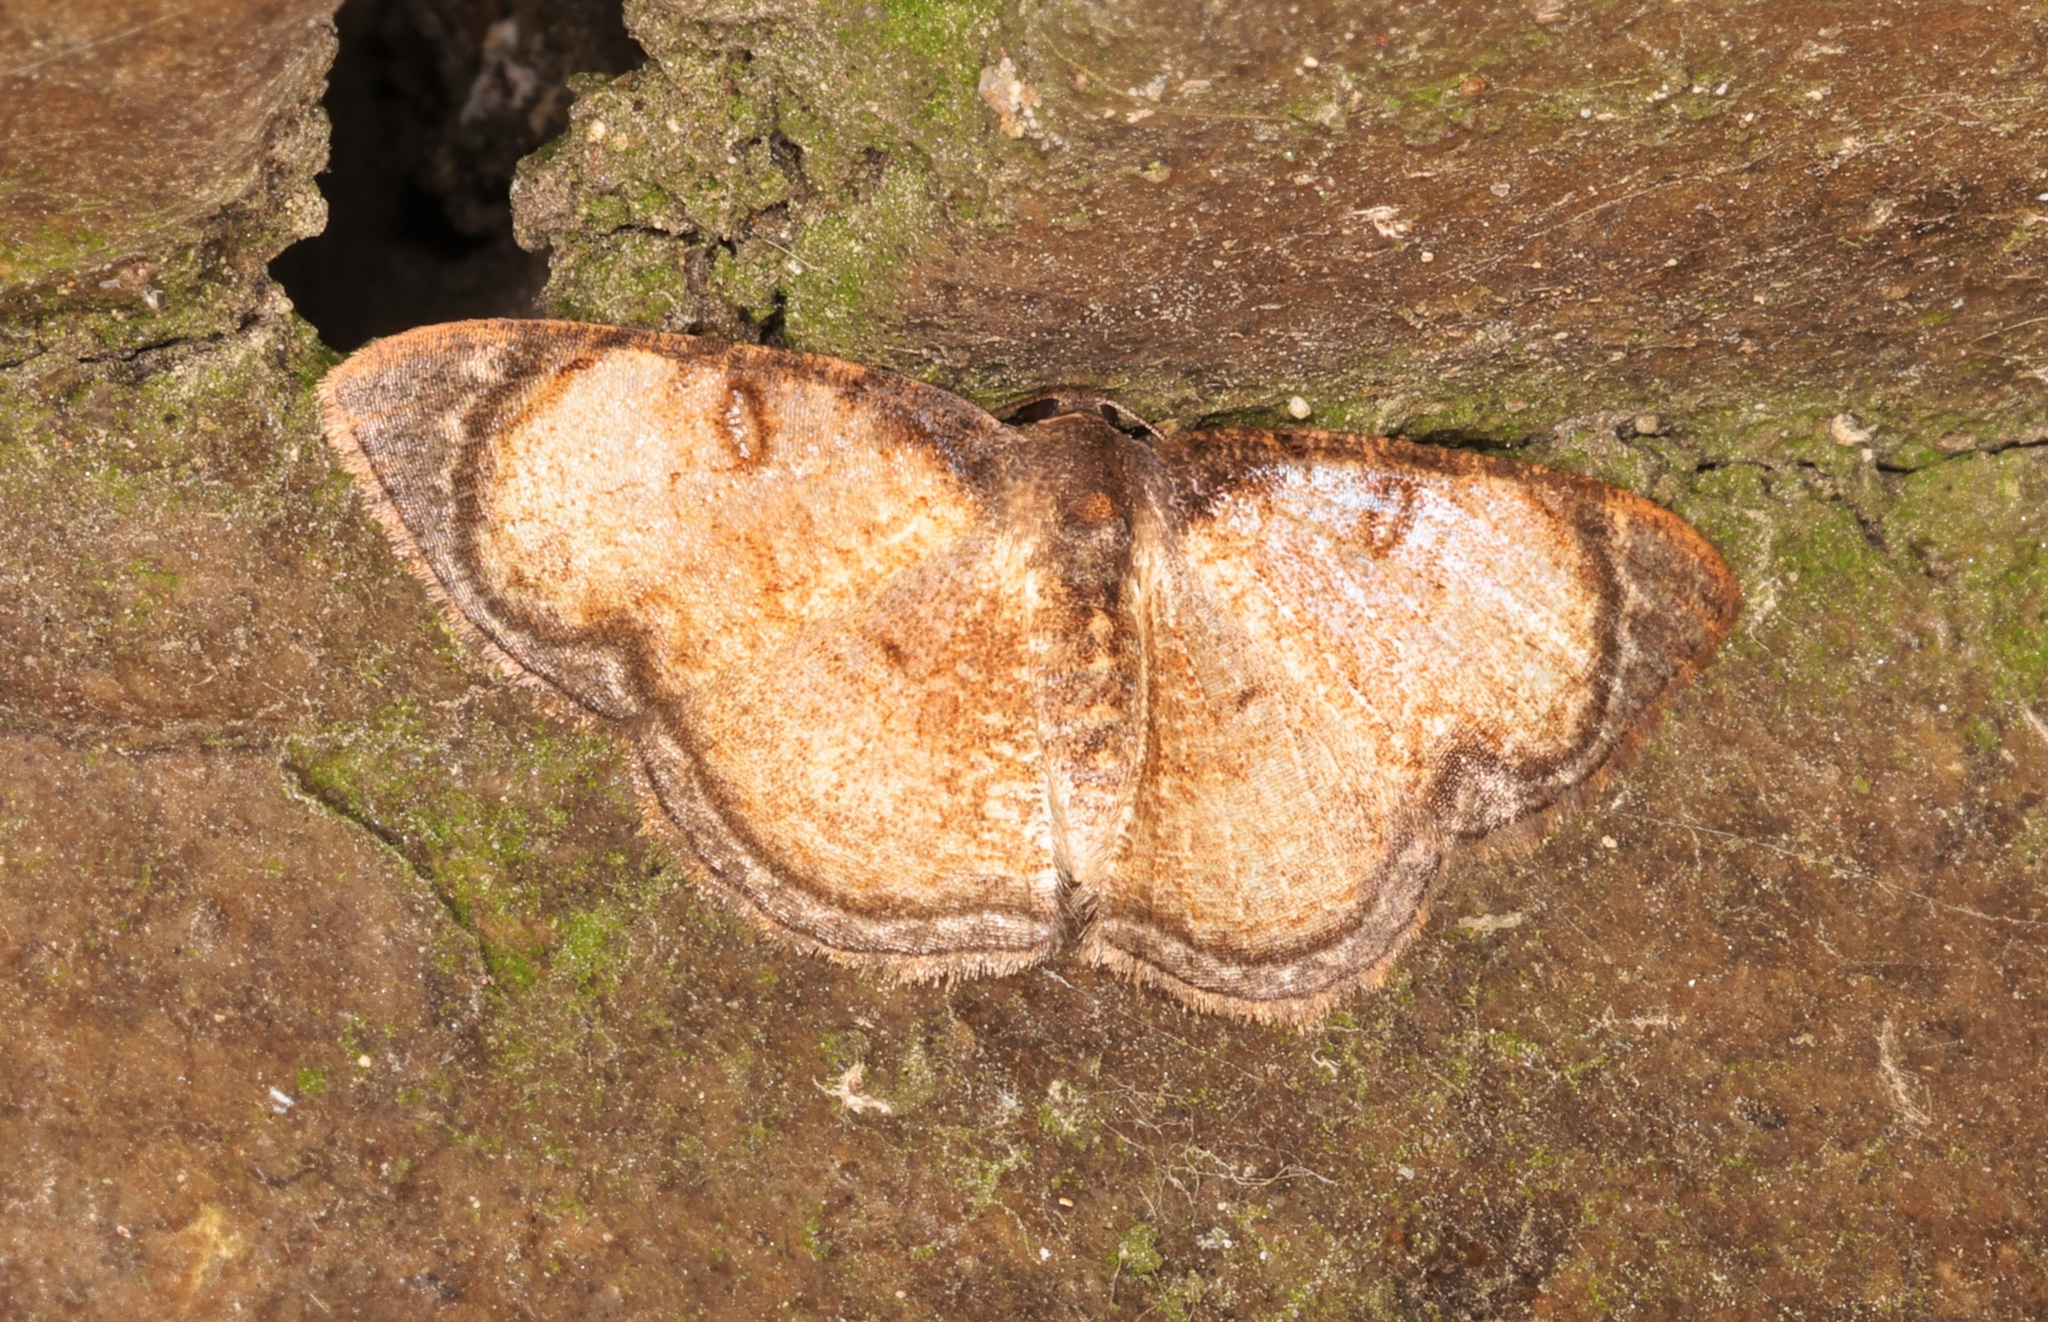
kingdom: Animalia
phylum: Arthropoda
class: Insecta
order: Lepidoptera
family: Geometridae
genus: Hydatocapnia
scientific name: Hydatocapnia gemina
